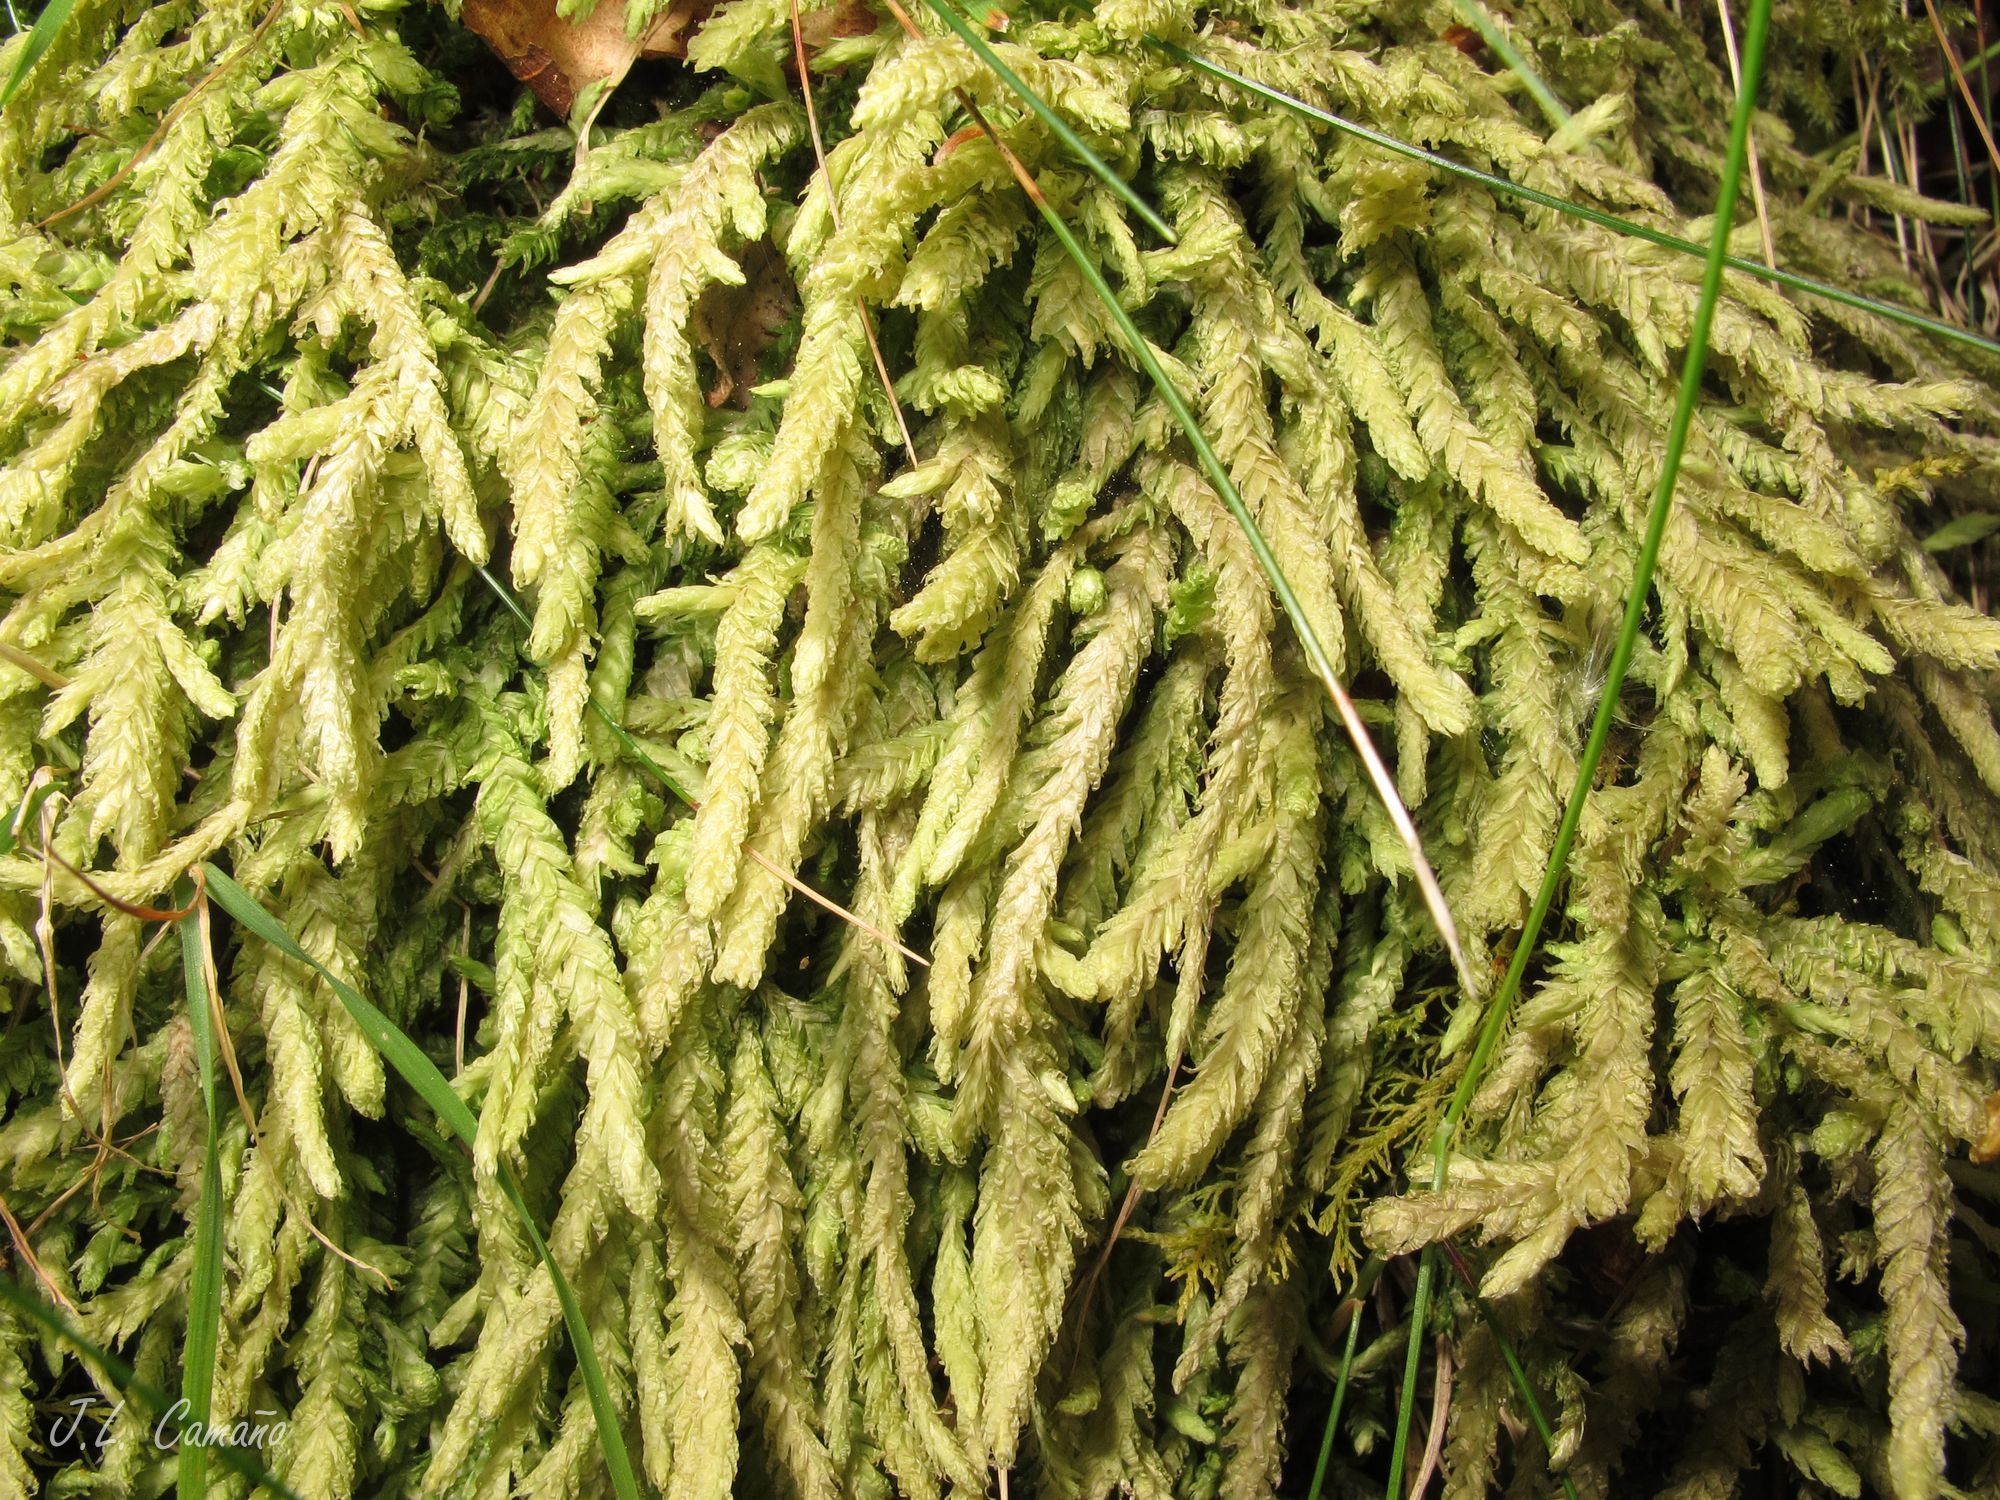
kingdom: Plantae
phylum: Bryophyta
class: Bryopsida
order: Hypnales
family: Plagiotheciaceae
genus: Plagiothecium
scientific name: Plagiothecium undulatum
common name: Waved silk-moss
